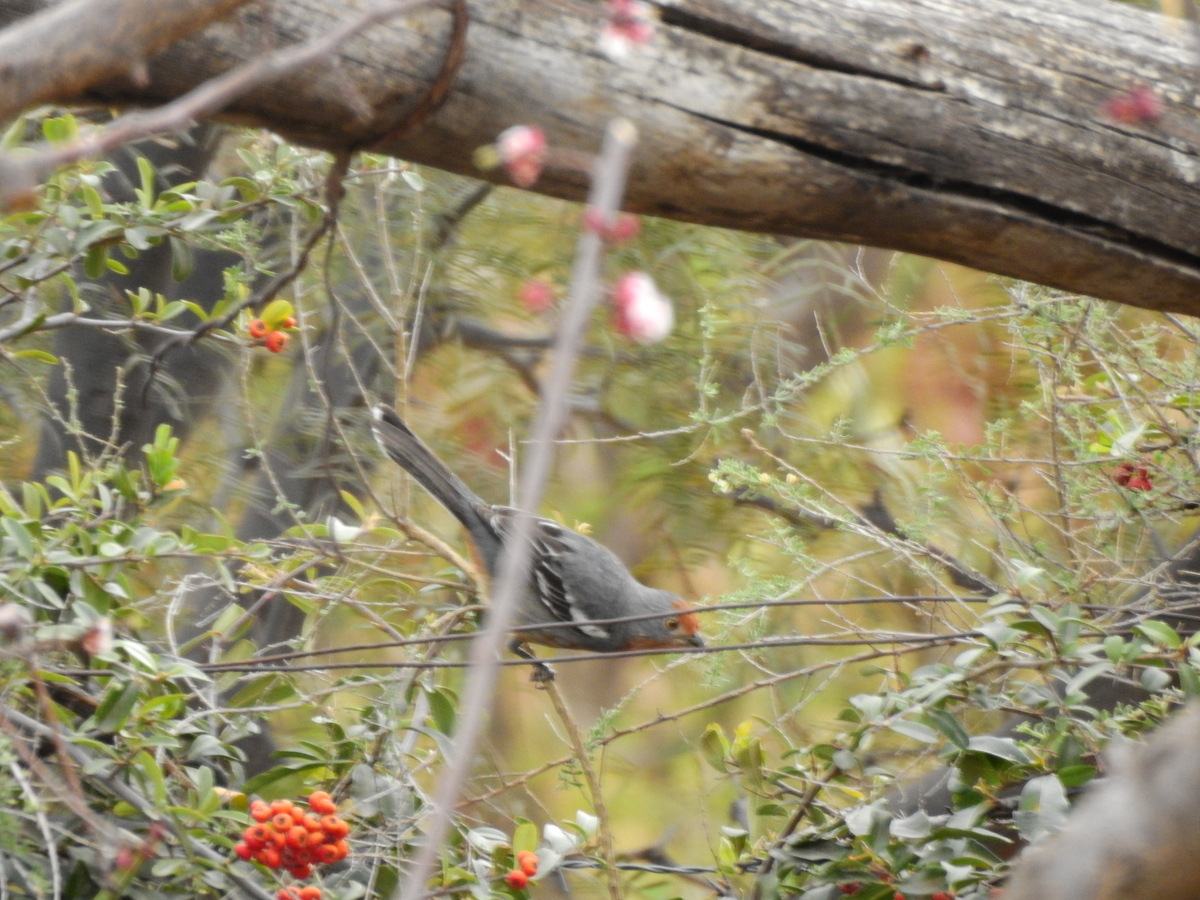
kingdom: Animalia
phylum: Chordata
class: Aves
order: Passeriformes
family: Cotingidae
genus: Phytotoma
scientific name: Phytotoma rutila
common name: White-tipped plantcutter
